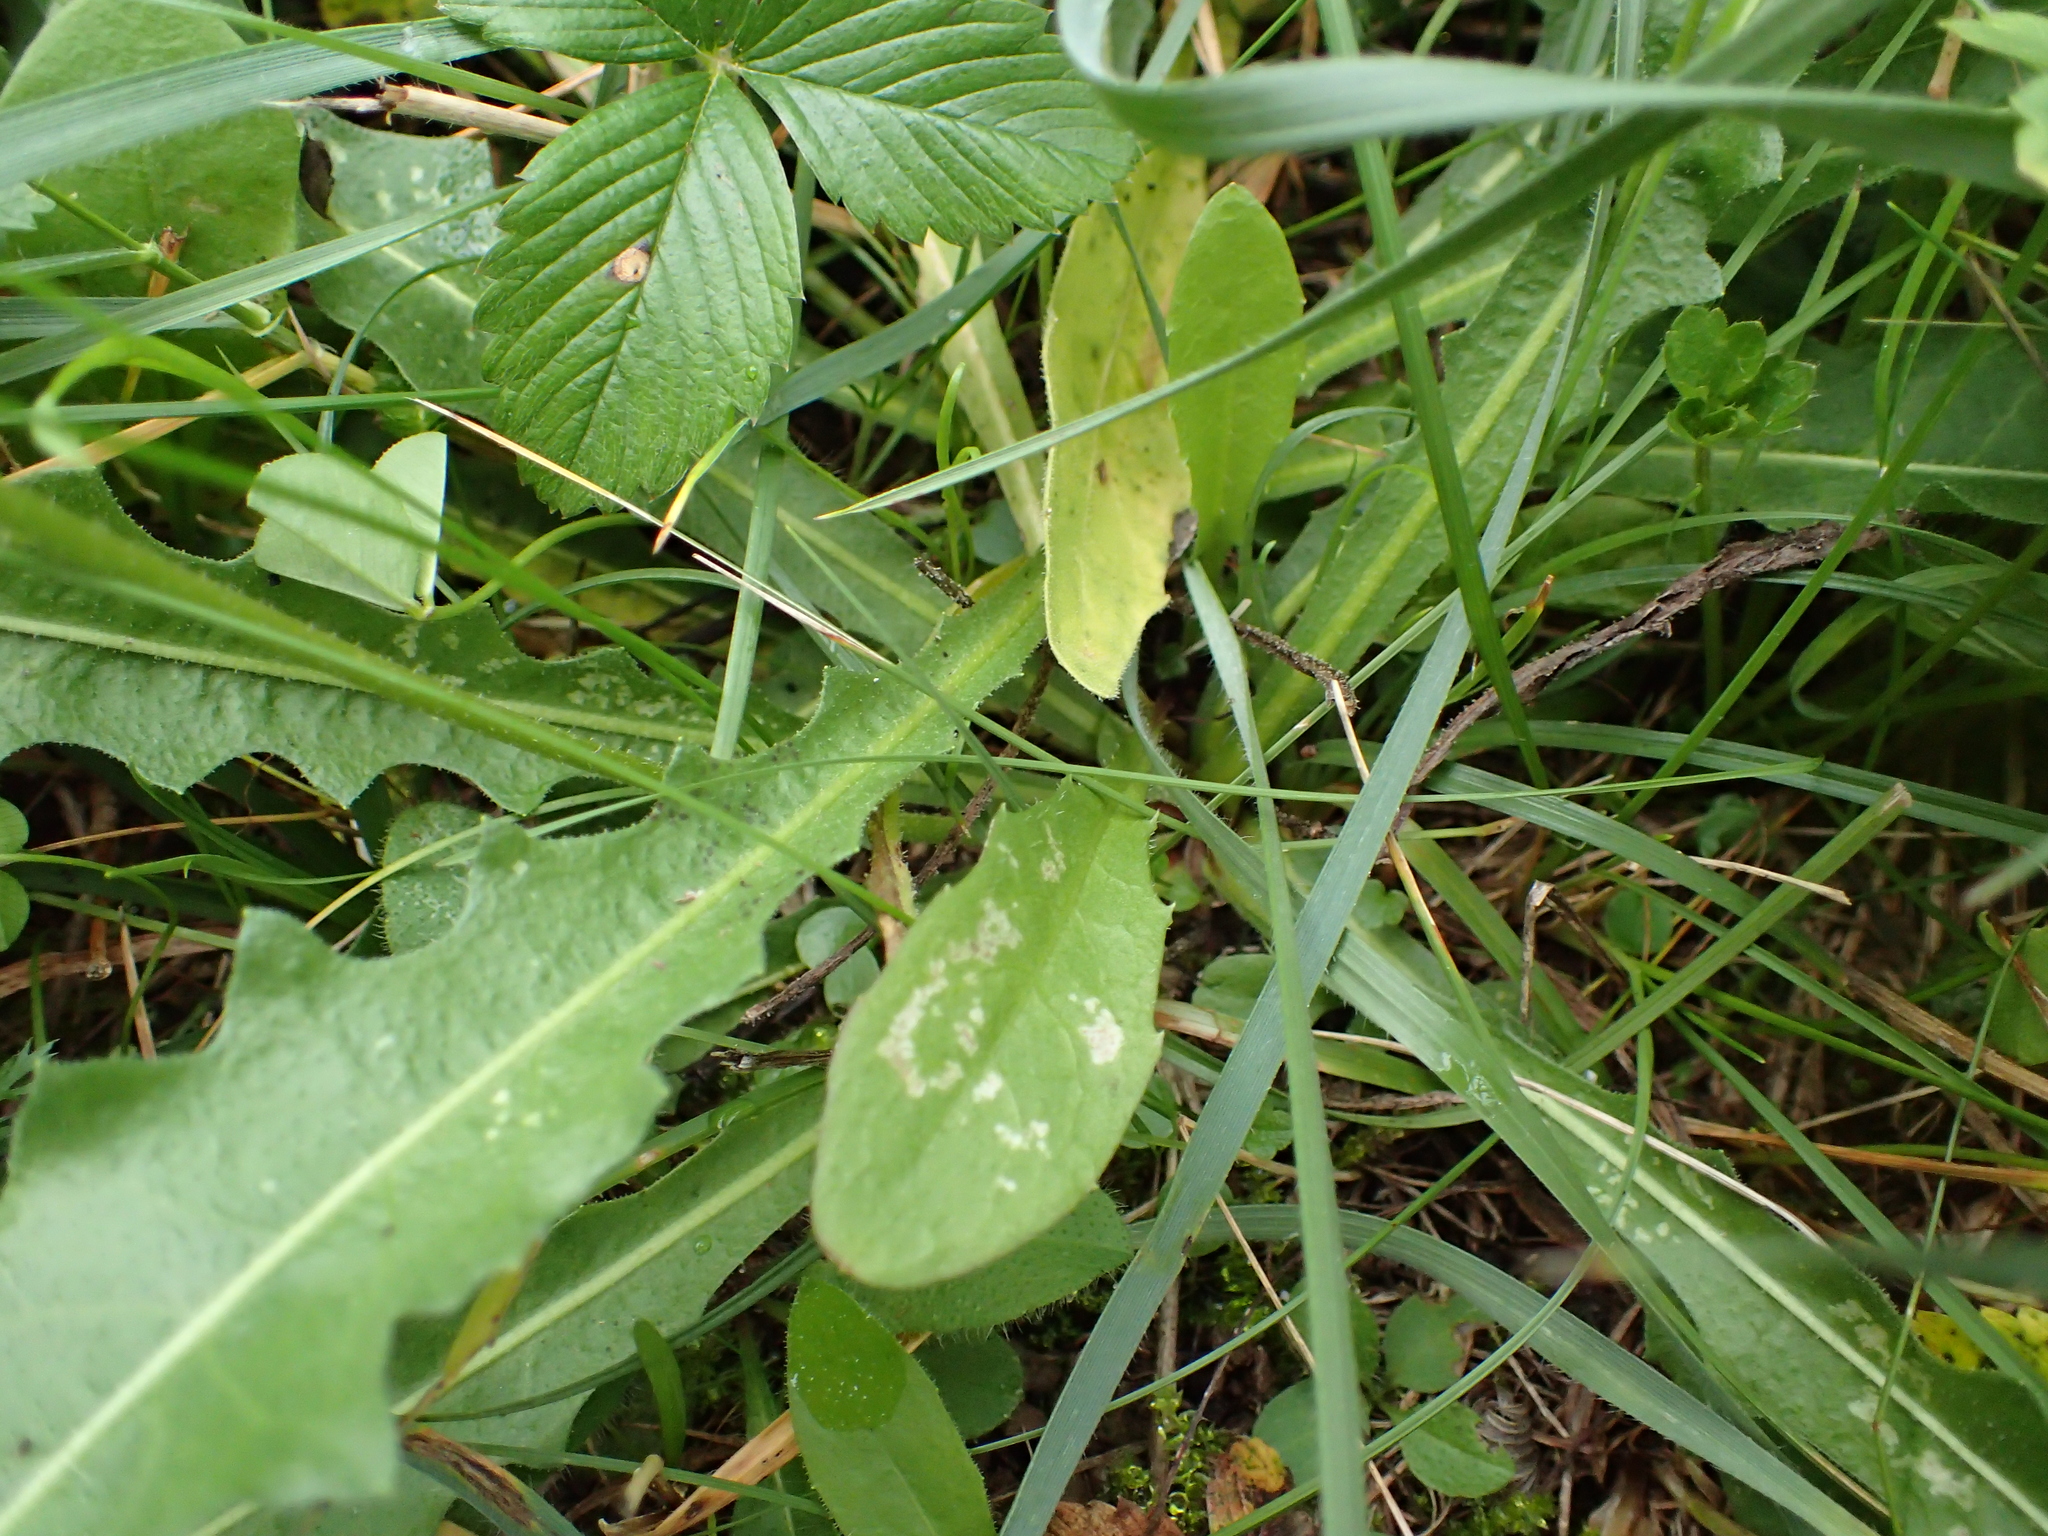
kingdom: Plantae
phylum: Tracheophyta
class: Magnoliopsida
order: Asterales
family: Asteraceae
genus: Leontodon
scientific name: Leontodon hispidus
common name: Rough hawkbit
